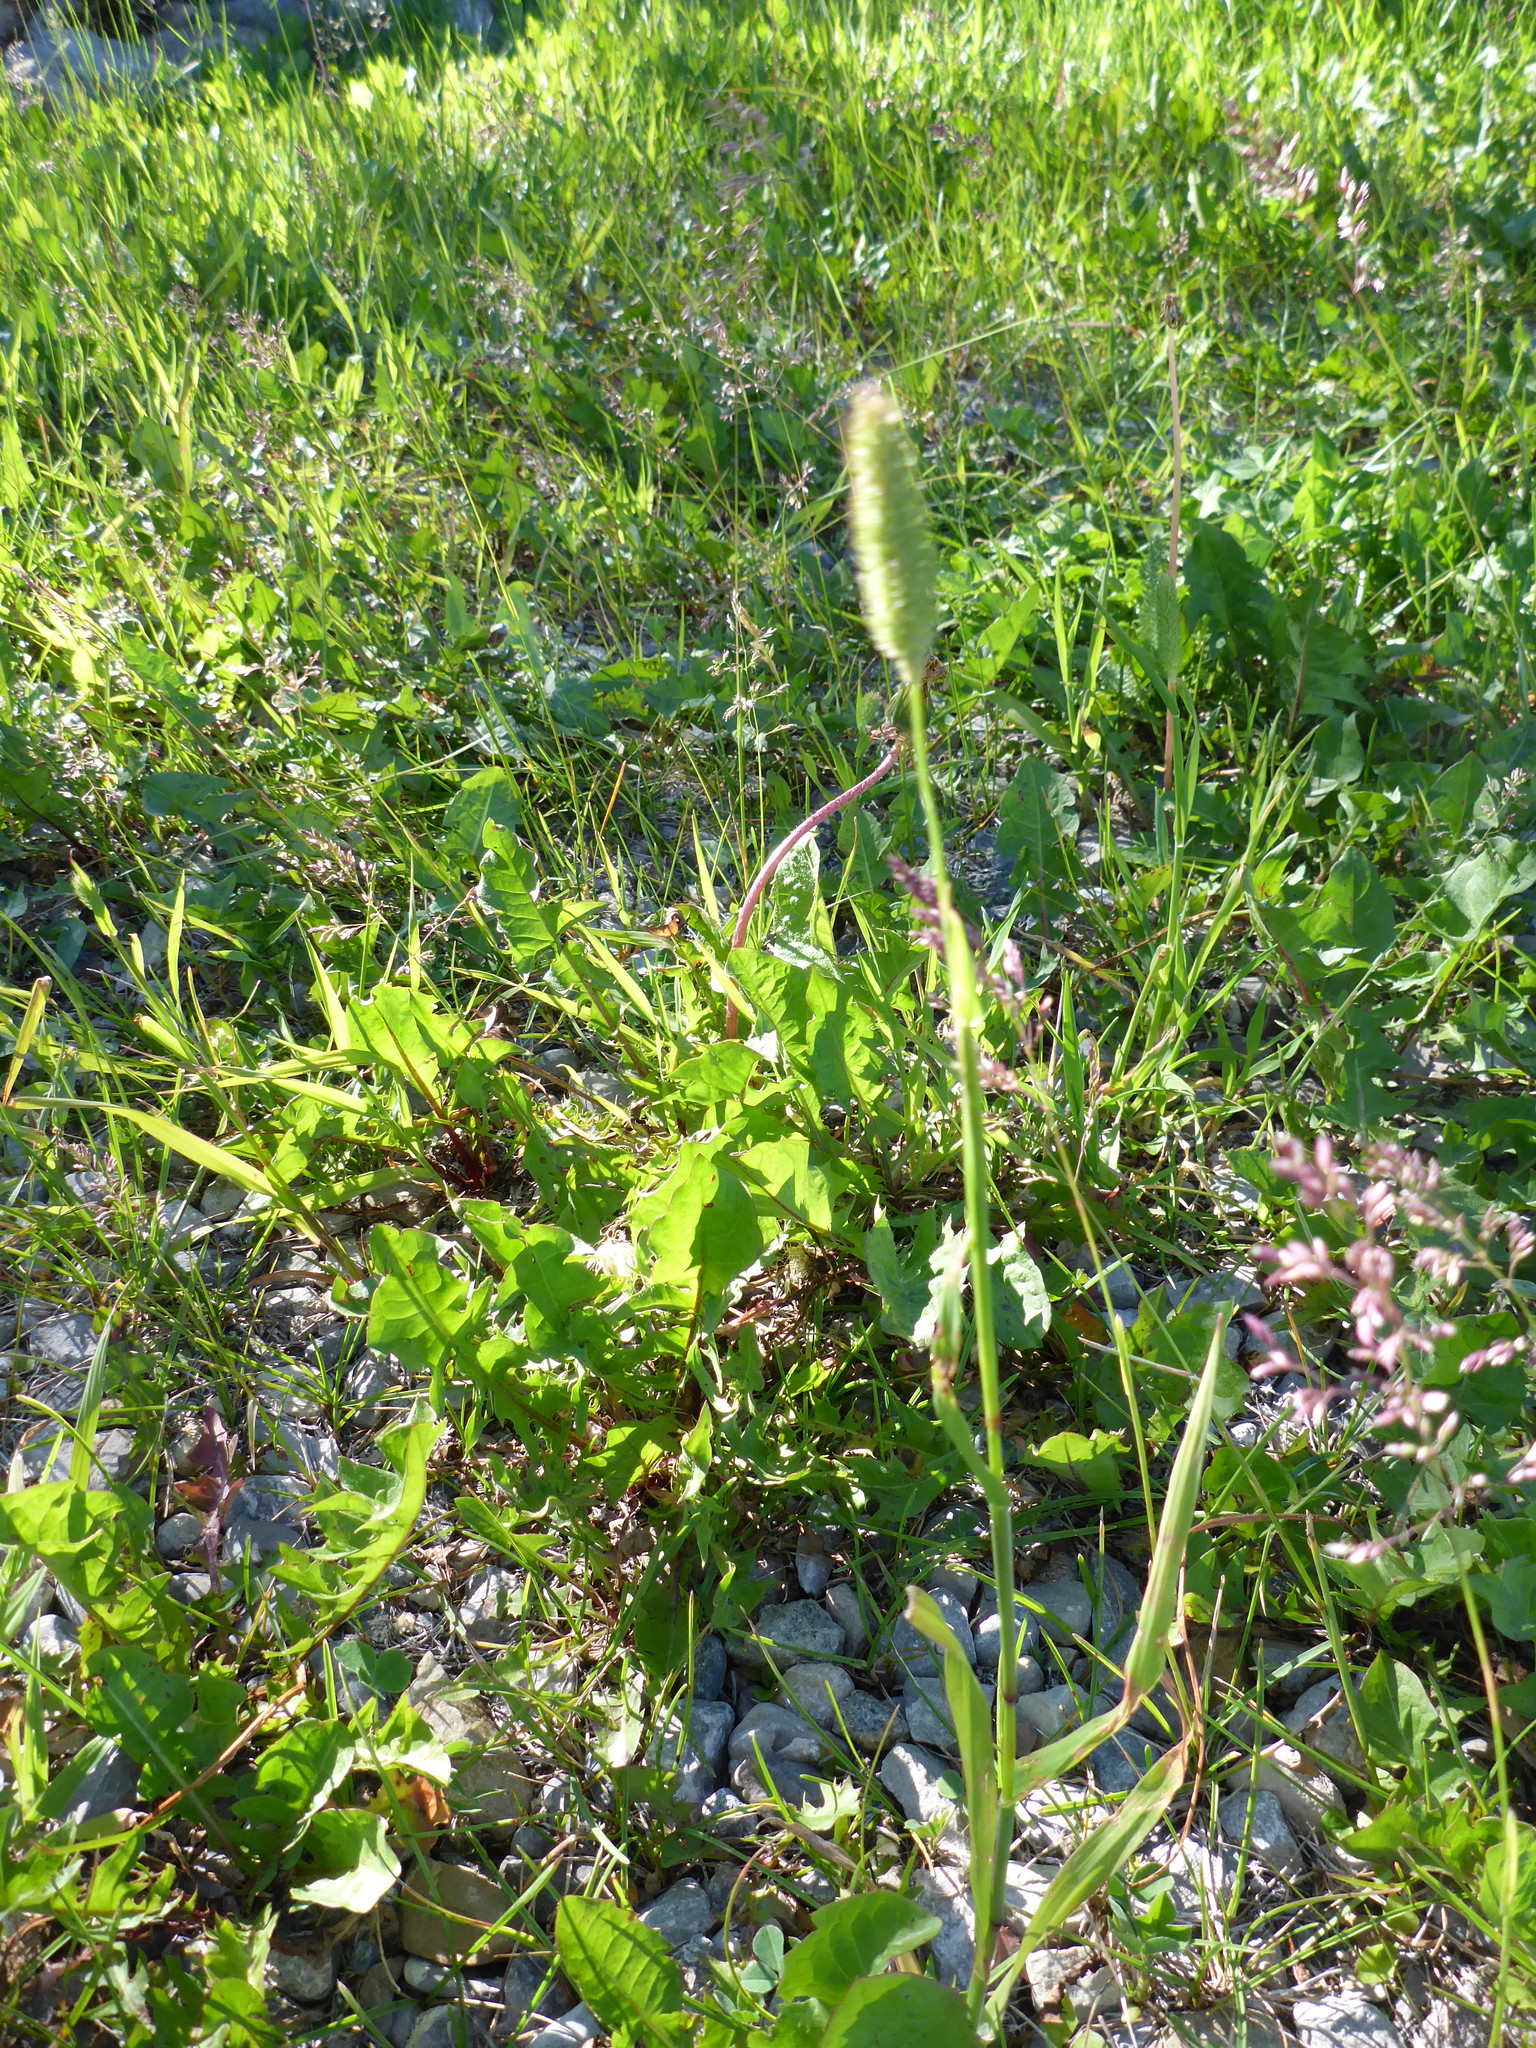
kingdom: Plantae
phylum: Tracheophyta
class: Liliopsida
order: Poales
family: Poaceae
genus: Phleum
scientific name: Phleum pratense
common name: Timothy grass
